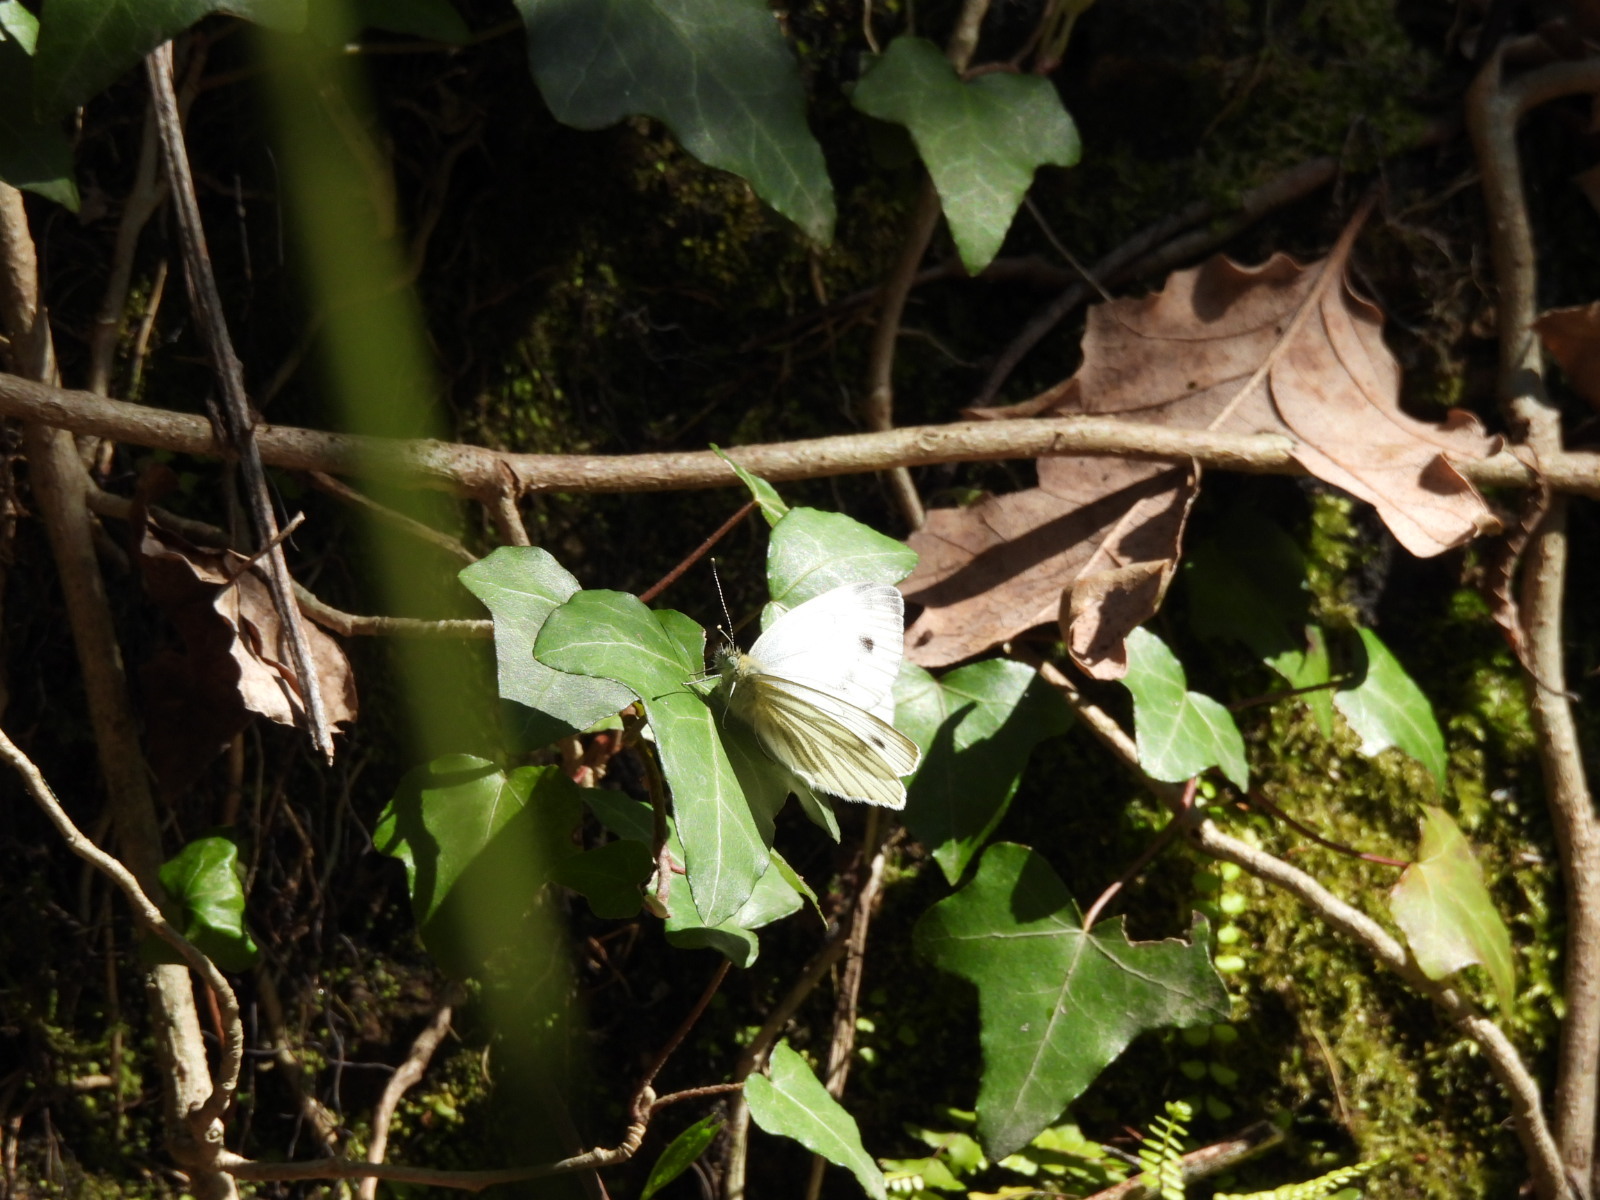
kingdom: Animalia
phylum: Arthropoda
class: Insecta
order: Lepidoptera
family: Pieridae
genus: Pieris
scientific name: Pieris napi
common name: Green-veined white
